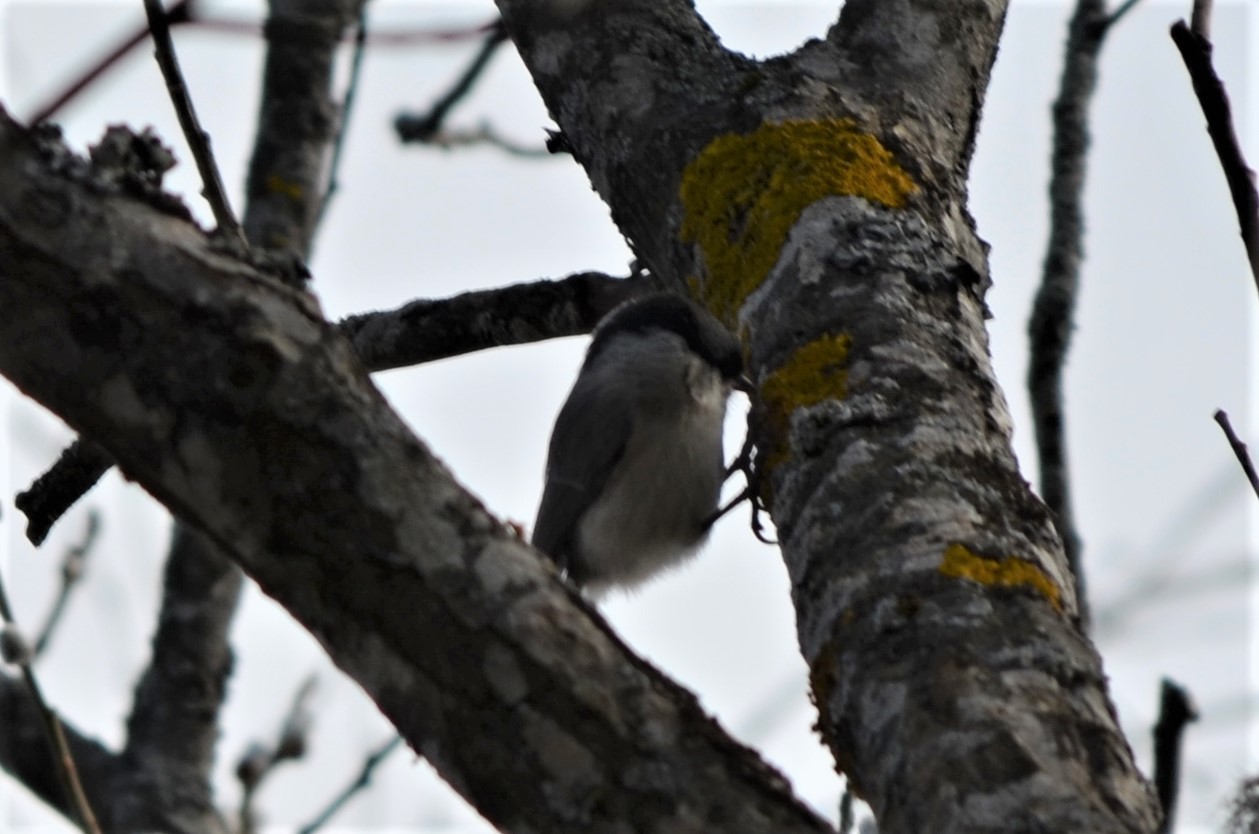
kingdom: Animalia
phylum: Chordata
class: Aves
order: Passeriformes
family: Paridae
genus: Poecile
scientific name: Poecile palustris
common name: Marsh tit
